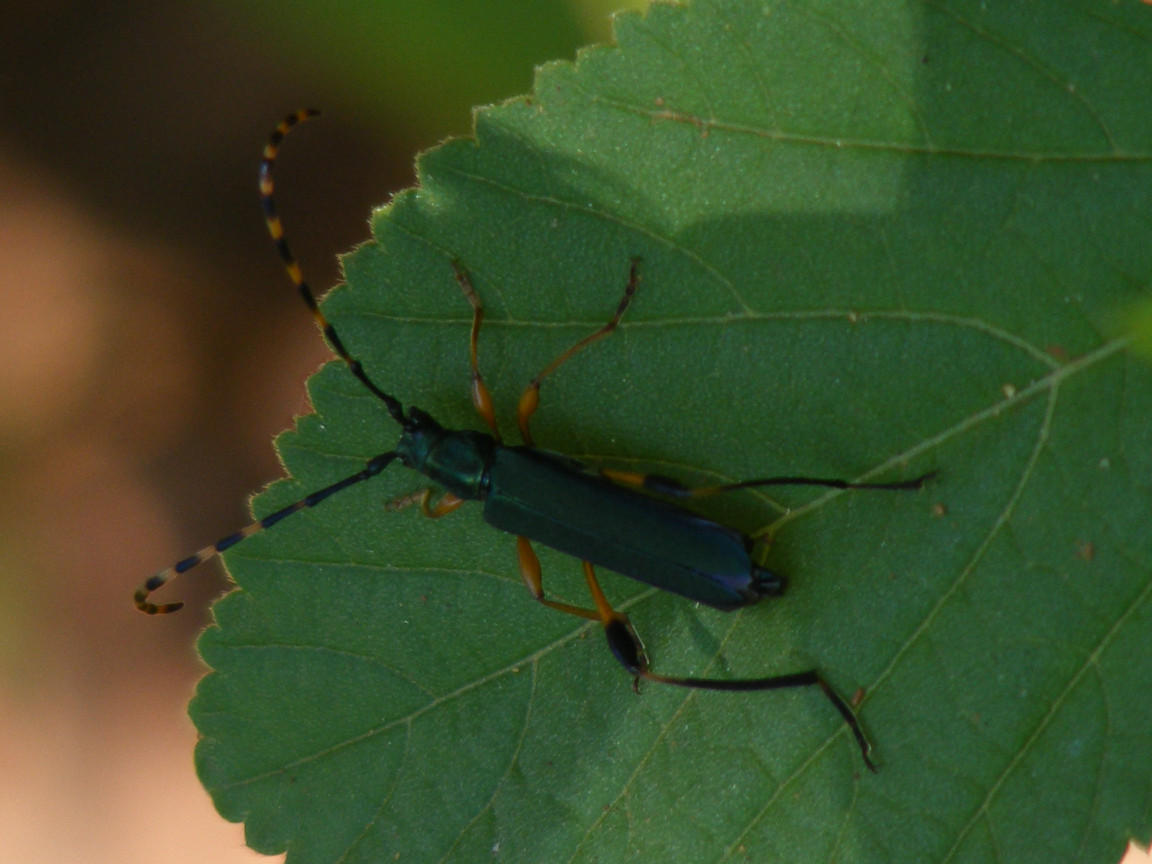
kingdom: Animalia
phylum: Arthropoda
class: Insecta
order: Coleoptera
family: Cerambycidae
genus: Litopus
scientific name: Litopus latipes
